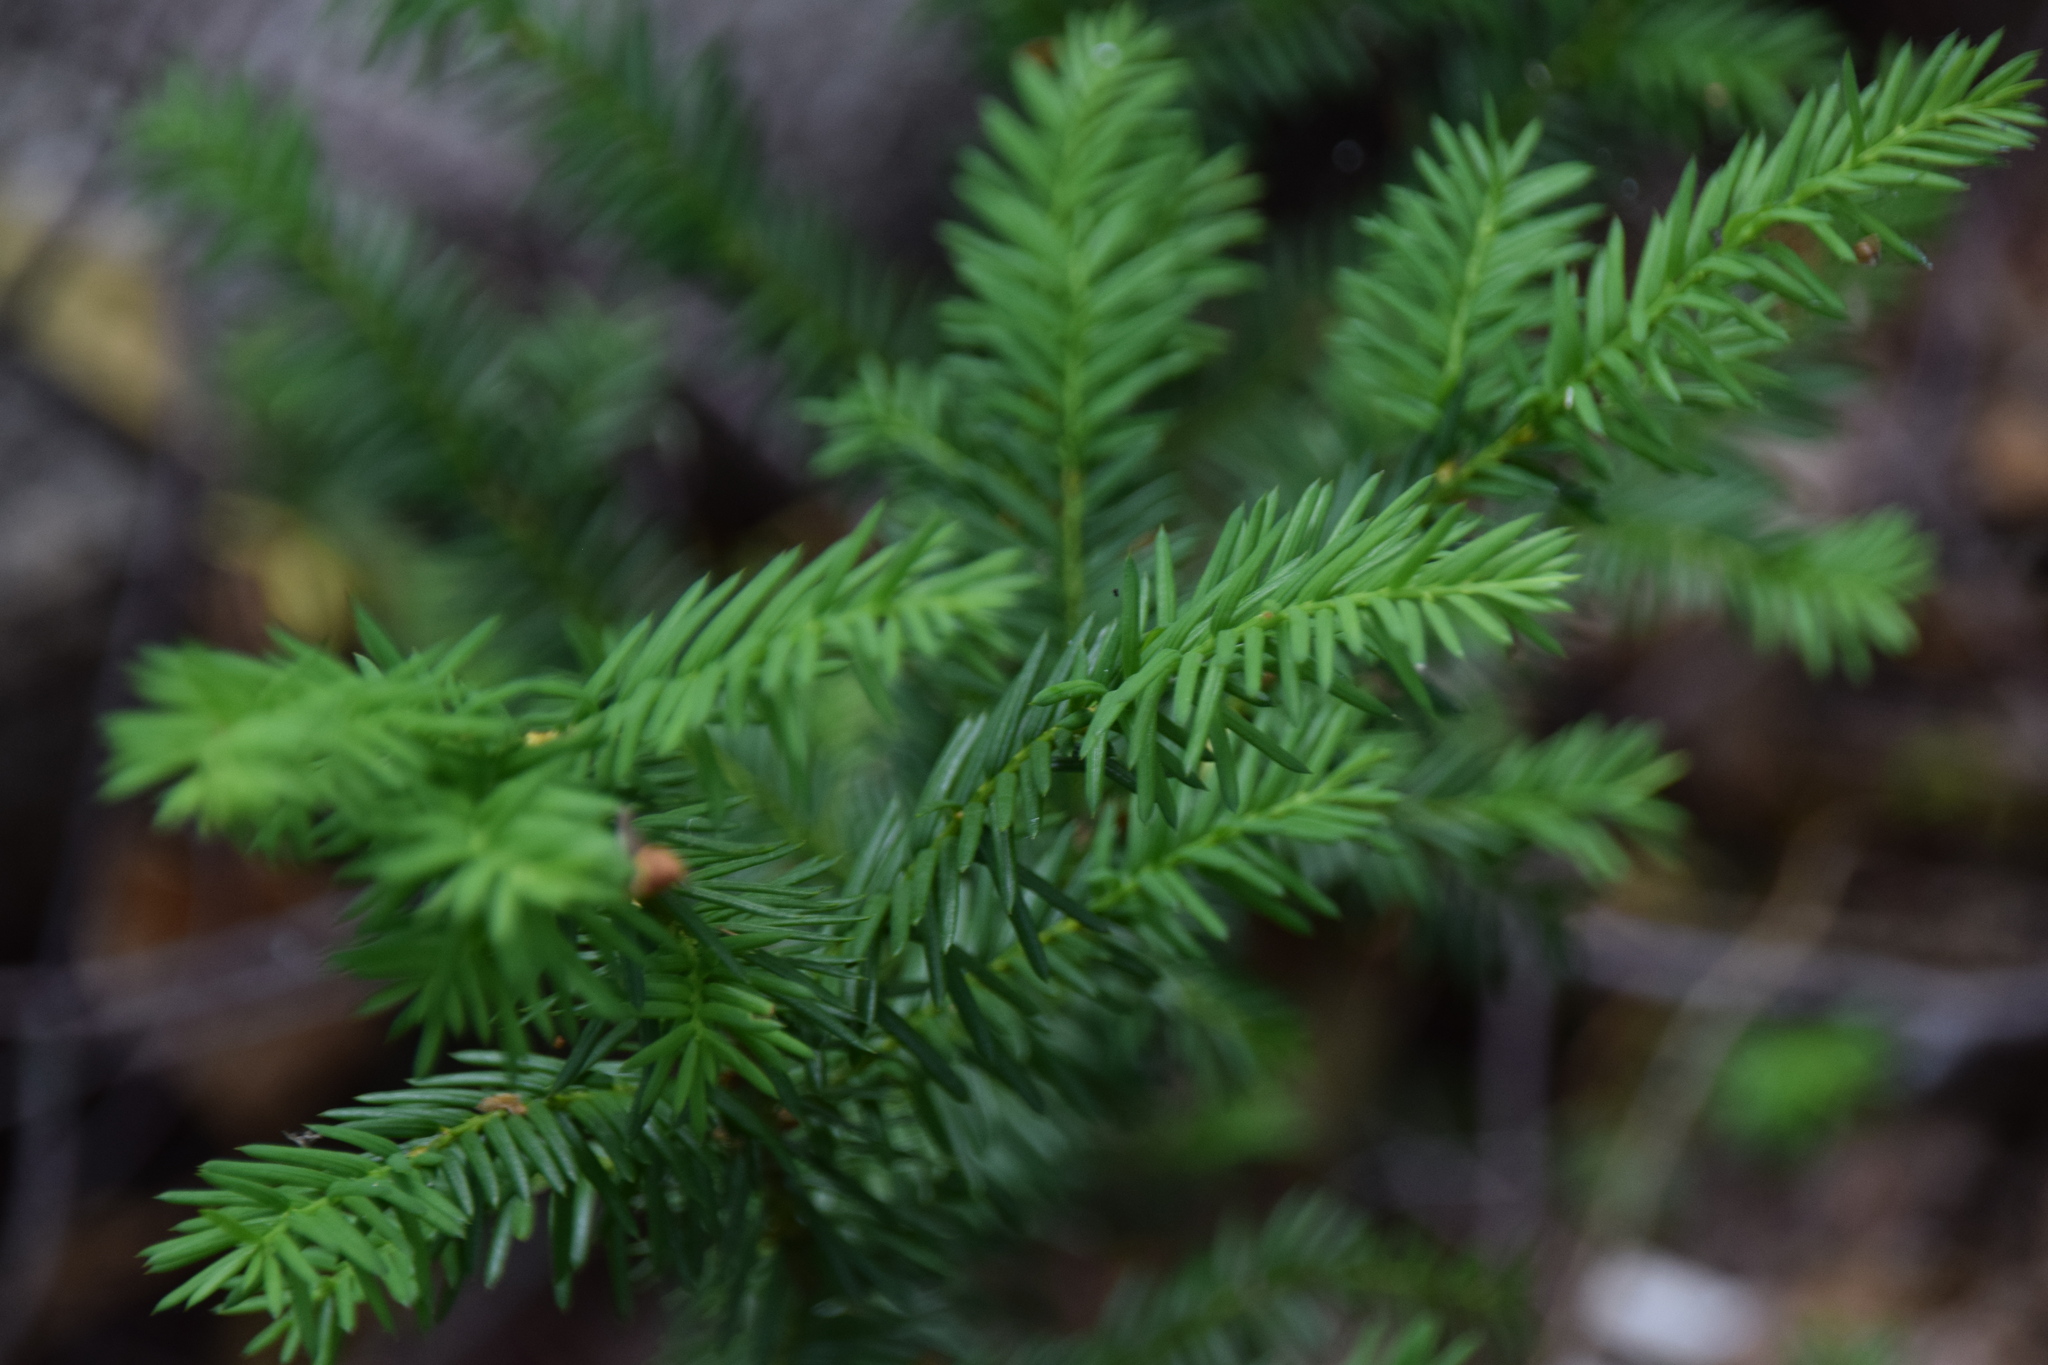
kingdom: Plantae
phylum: Tracheophyta
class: Pinopsida
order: Pinales
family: Taxaceae
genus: Taxus
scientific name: Taxus canadensis
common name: American yew
